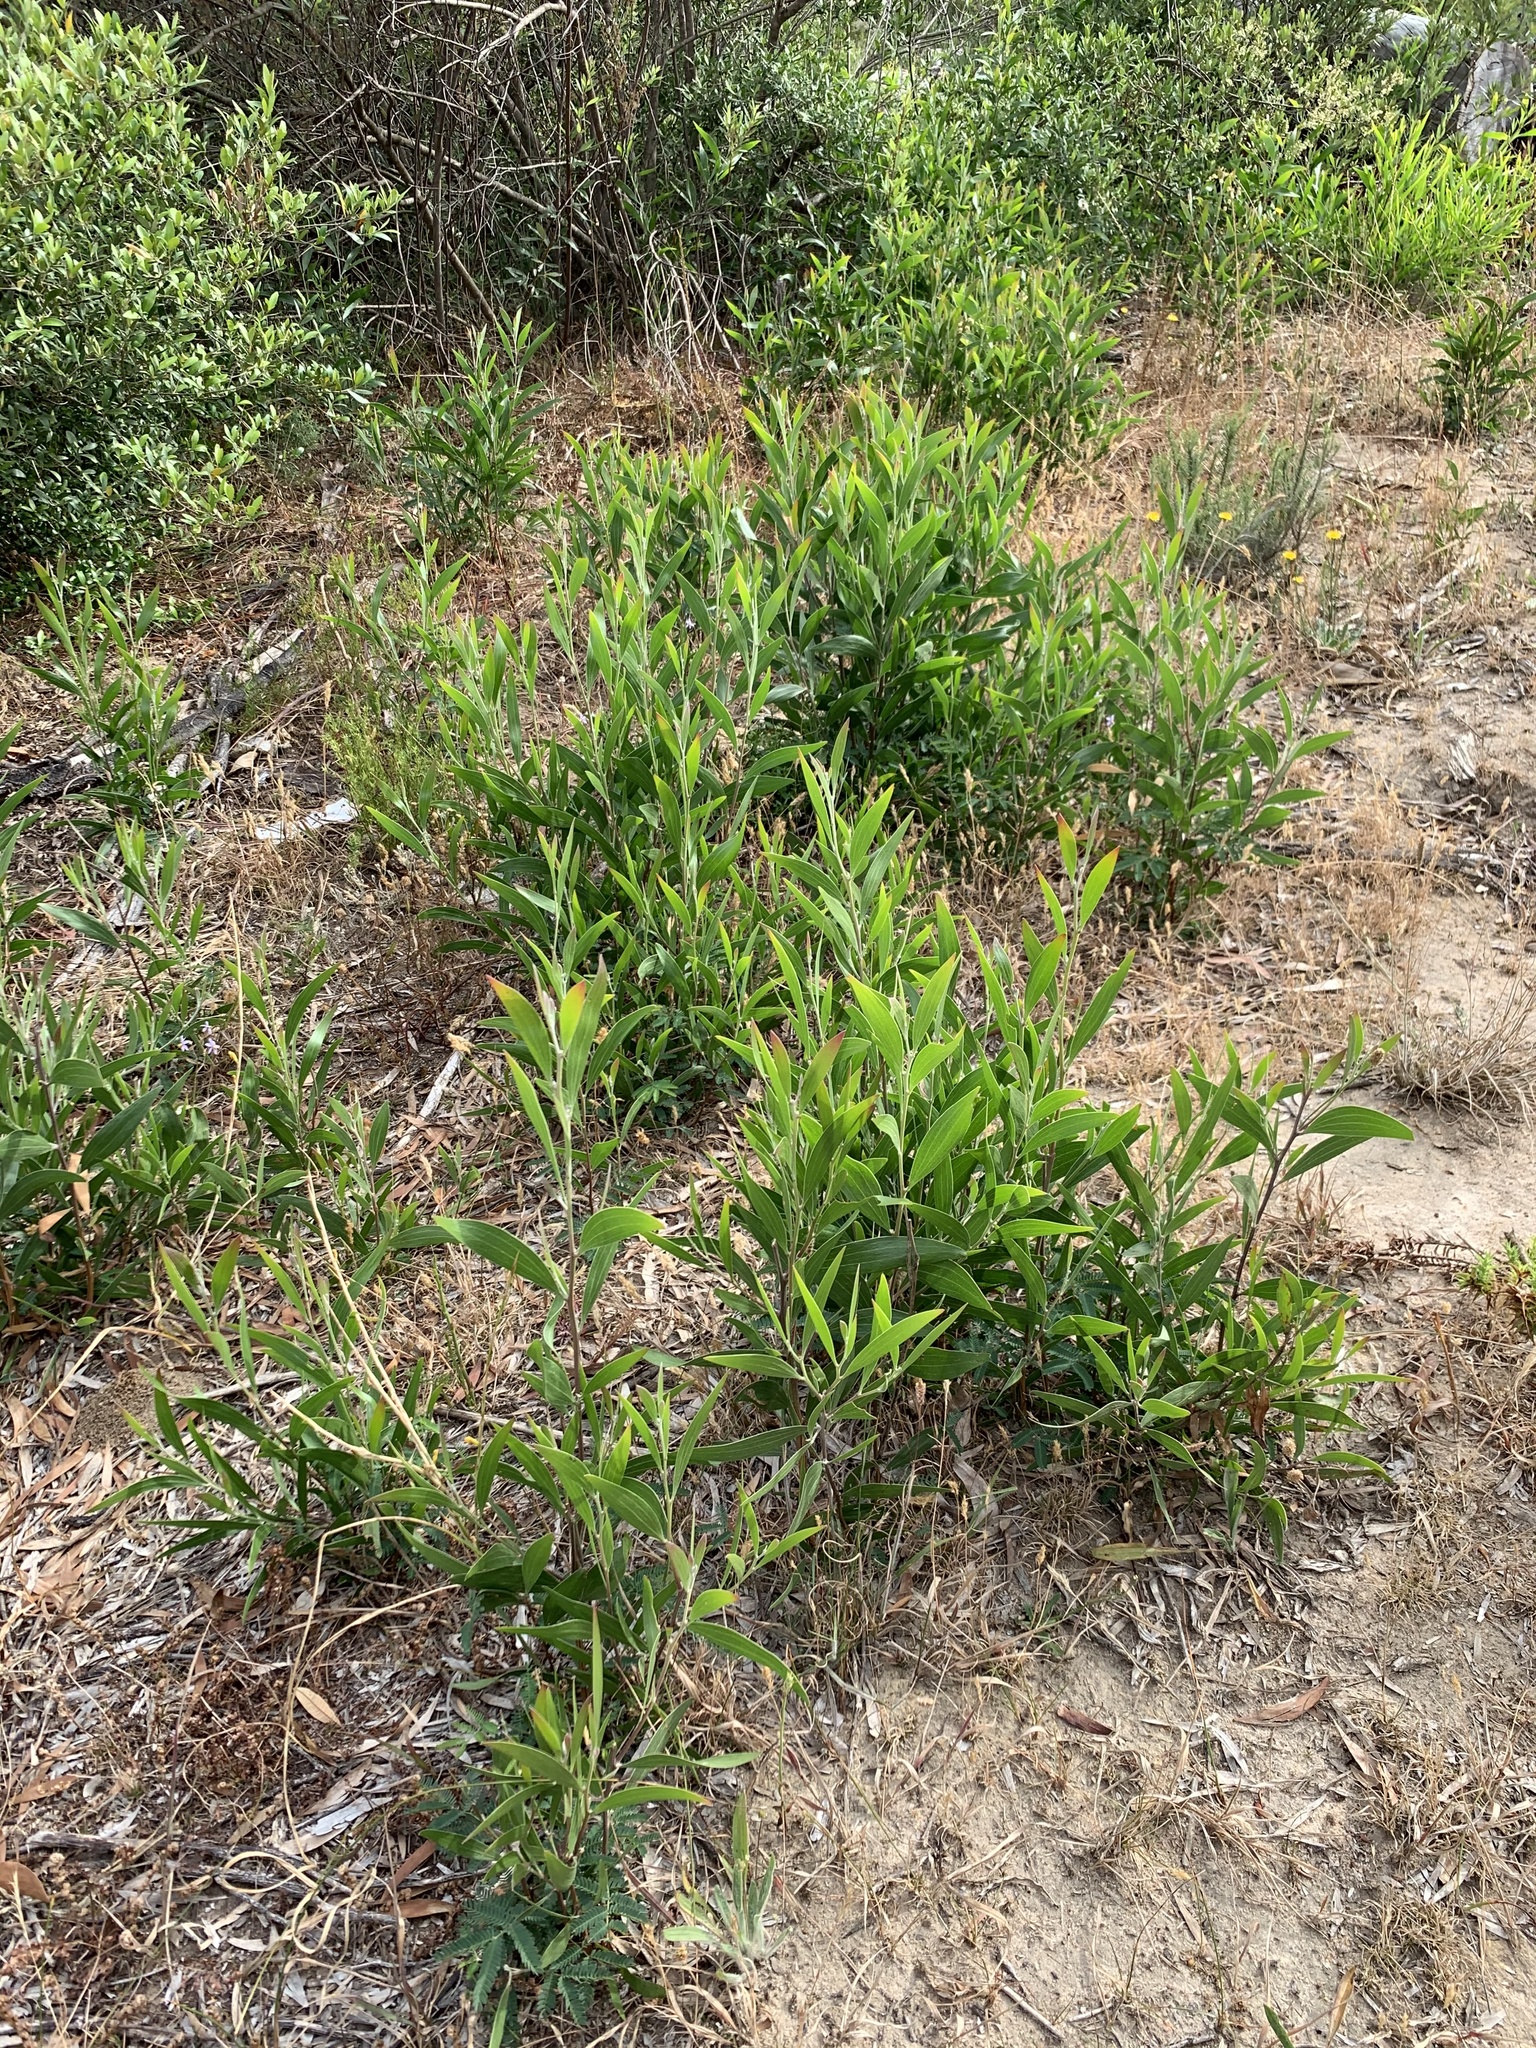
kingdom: Plantae
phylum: Tracheophyta
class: Magnoliopsida
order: Fabales
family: Fabaceae
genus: Acacia
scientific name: Acacia melanoxylon
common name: Blackwood
